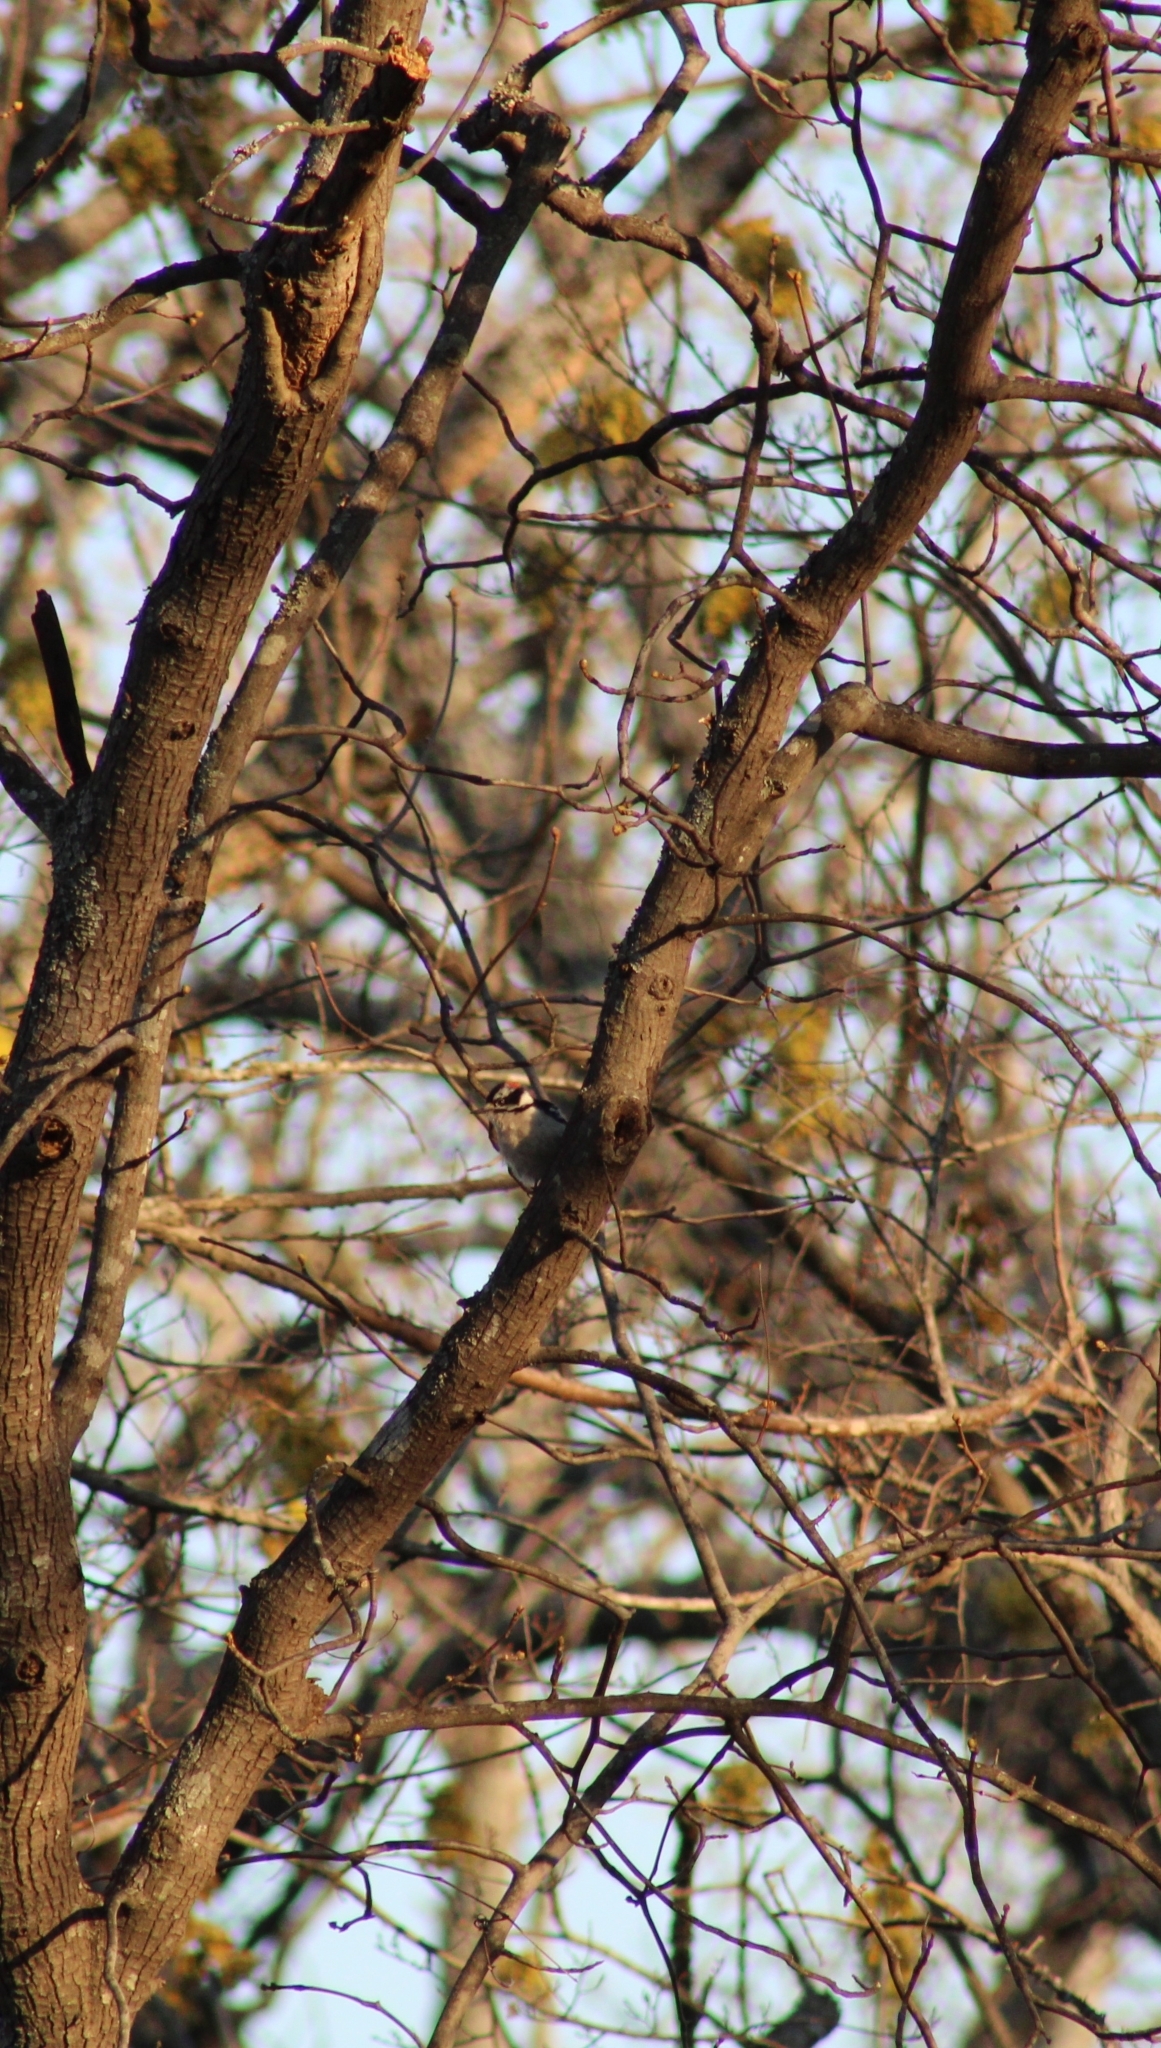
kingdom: Animalia
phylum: Chordata
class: Aves
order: Piciformes
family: Picidae
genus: Dryobates
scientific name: Dryobates pubescens
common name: Downy woodpecker
